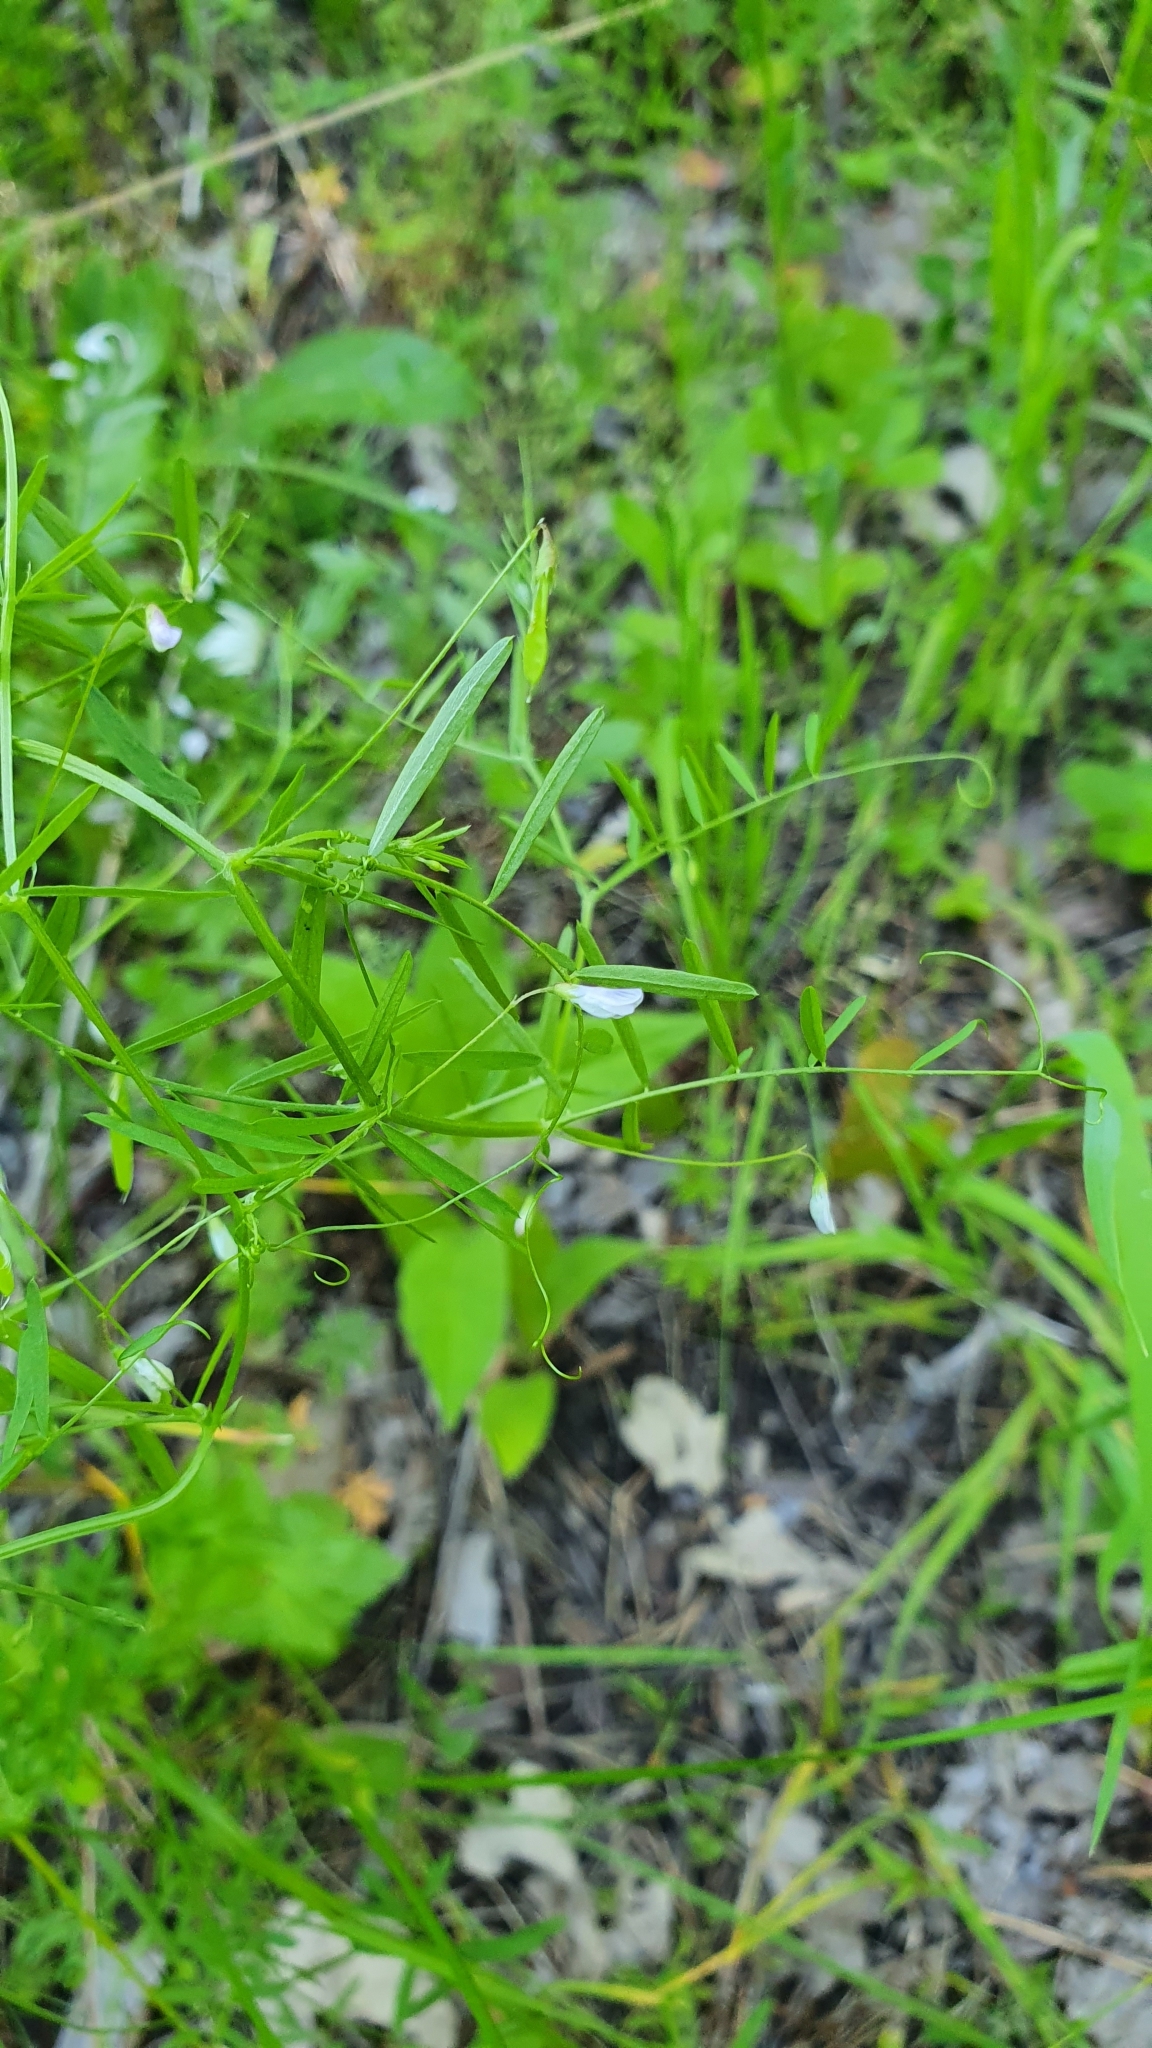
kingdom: Plantae
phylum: Tracheophyta
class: Magnoliopsida
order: Fabales
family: Fabaceae
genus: Vicia
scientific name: Vicia tetrasperma
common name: Smooth tare
